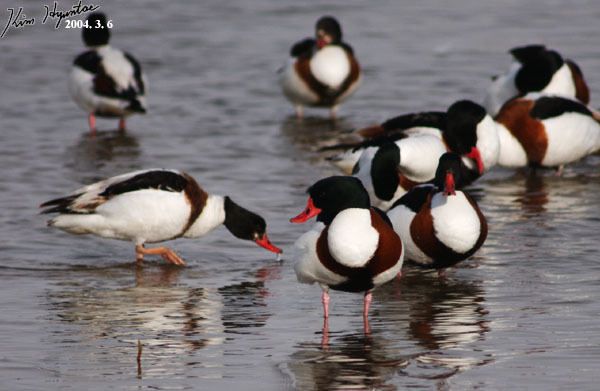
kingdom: Animalia
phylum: Chordata
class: Aves
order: Anseriformes
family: Anatidae
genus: Tadorna
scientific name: Tadorna tadorna
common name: Common shelduck
